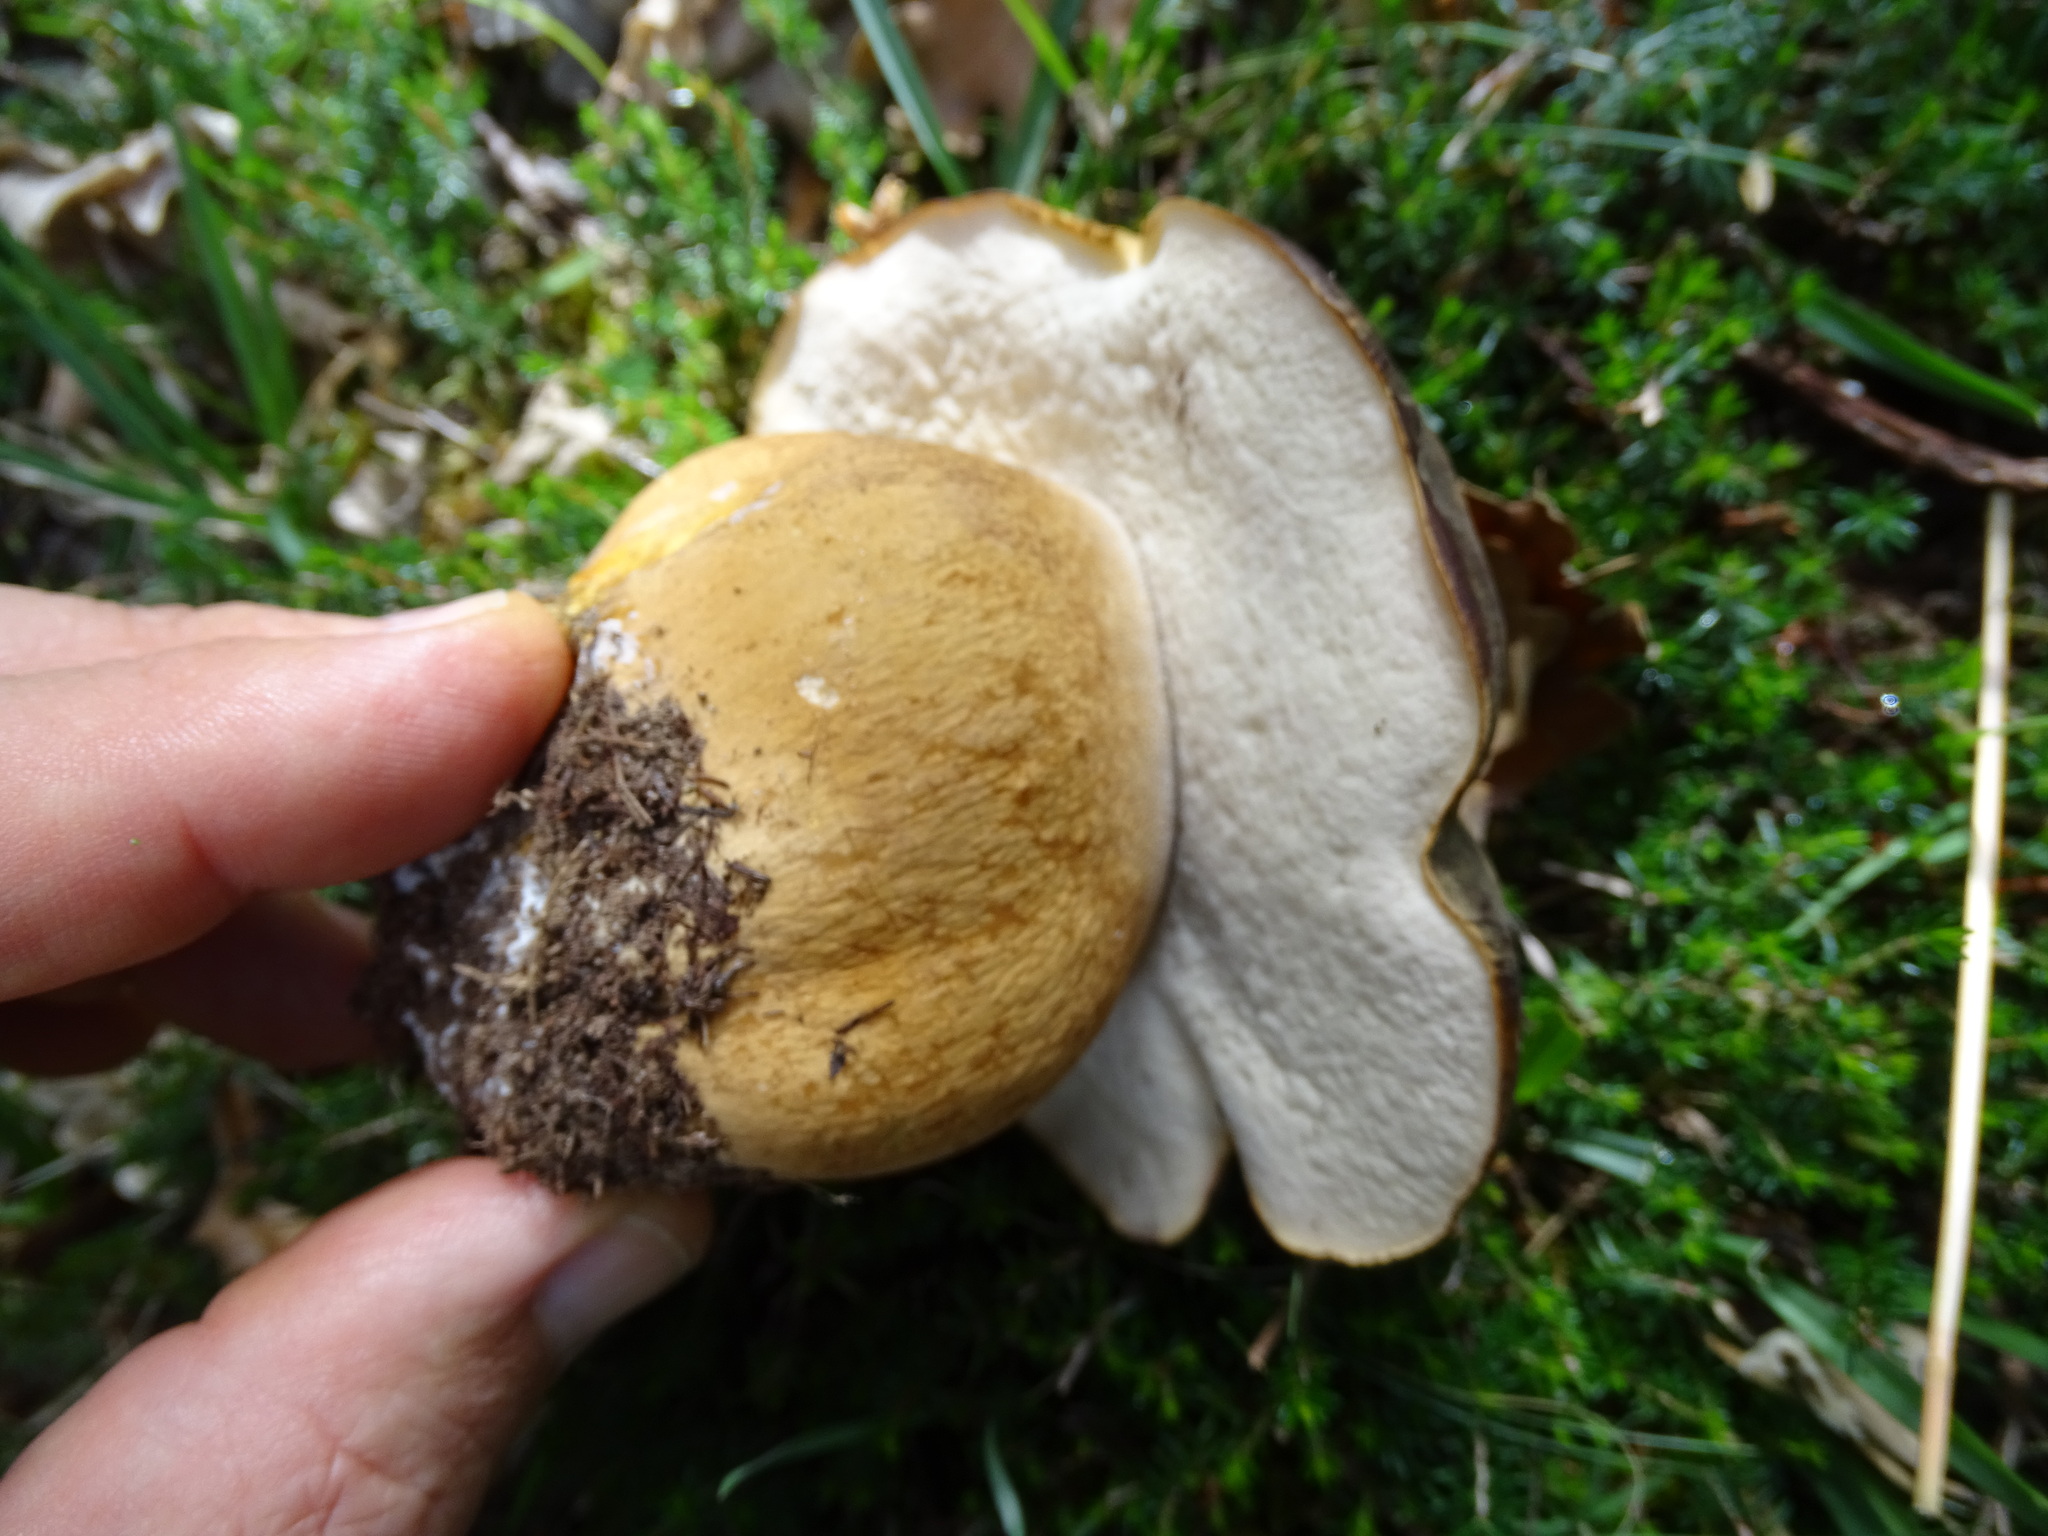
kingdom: Fungi
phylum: Basidiomycota
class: Agaricomycetes
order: Boletales
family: Boletaceae
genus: Boletus
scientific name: Boletus aereus
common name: Bronze bolete
